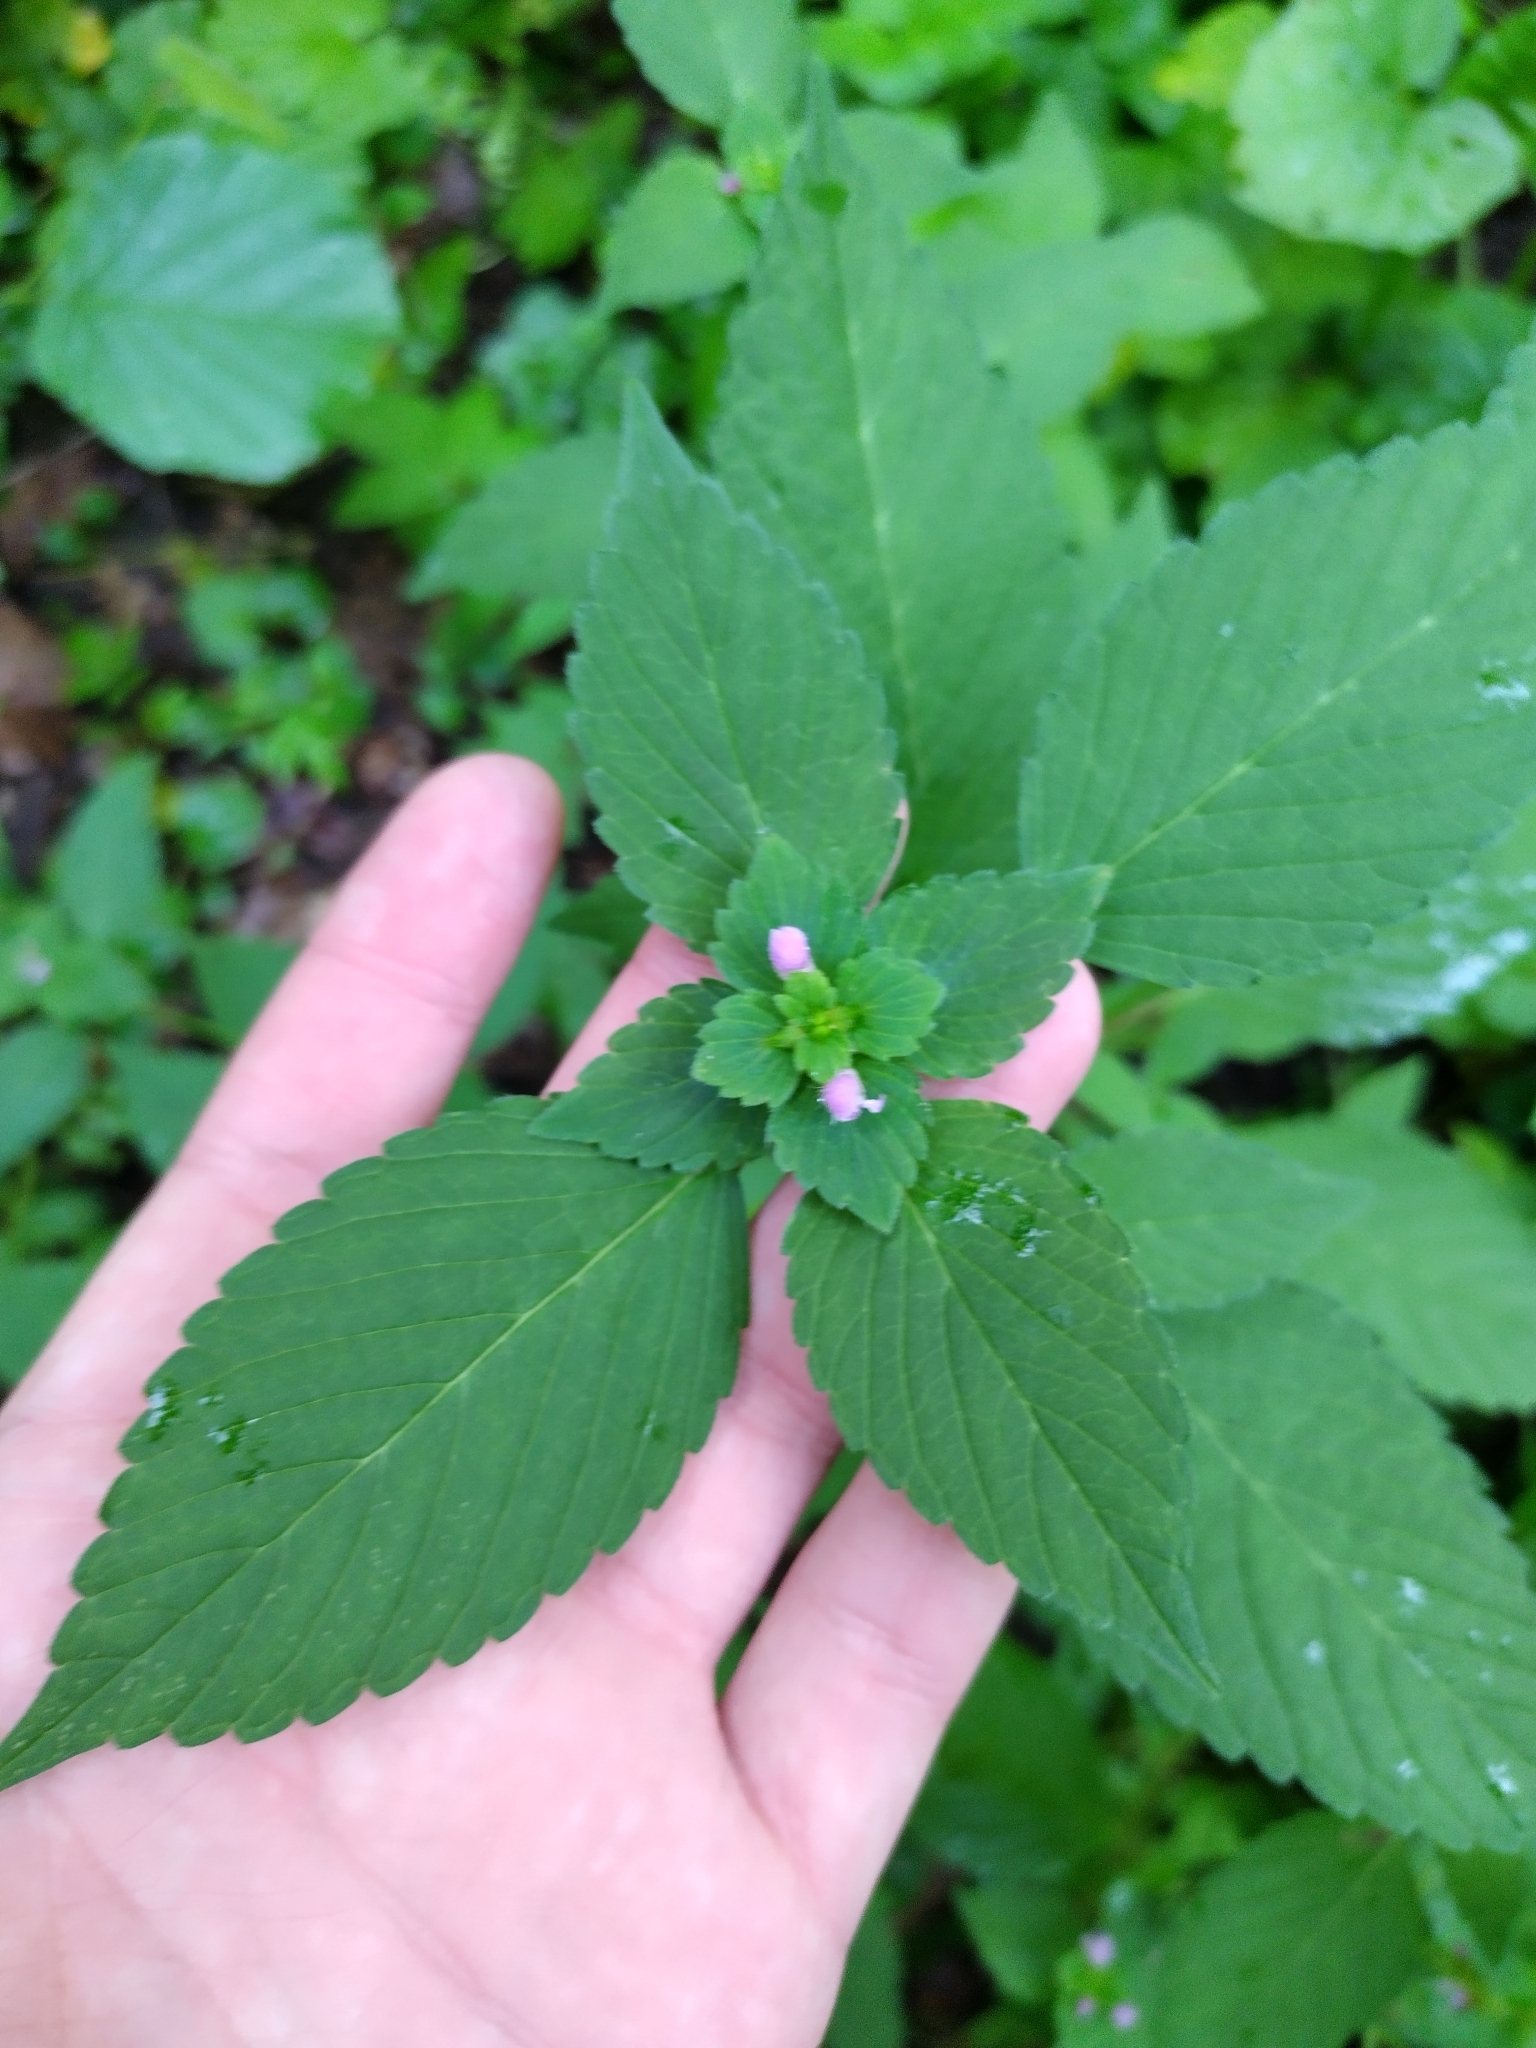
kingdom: Plantae
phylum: Tracheophyta
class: Magnoliopsida
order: Lamiales
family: Lamiaceae
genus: Galeopsis
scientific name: Galeopsis bifida
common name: Bifid hemp-nettle
